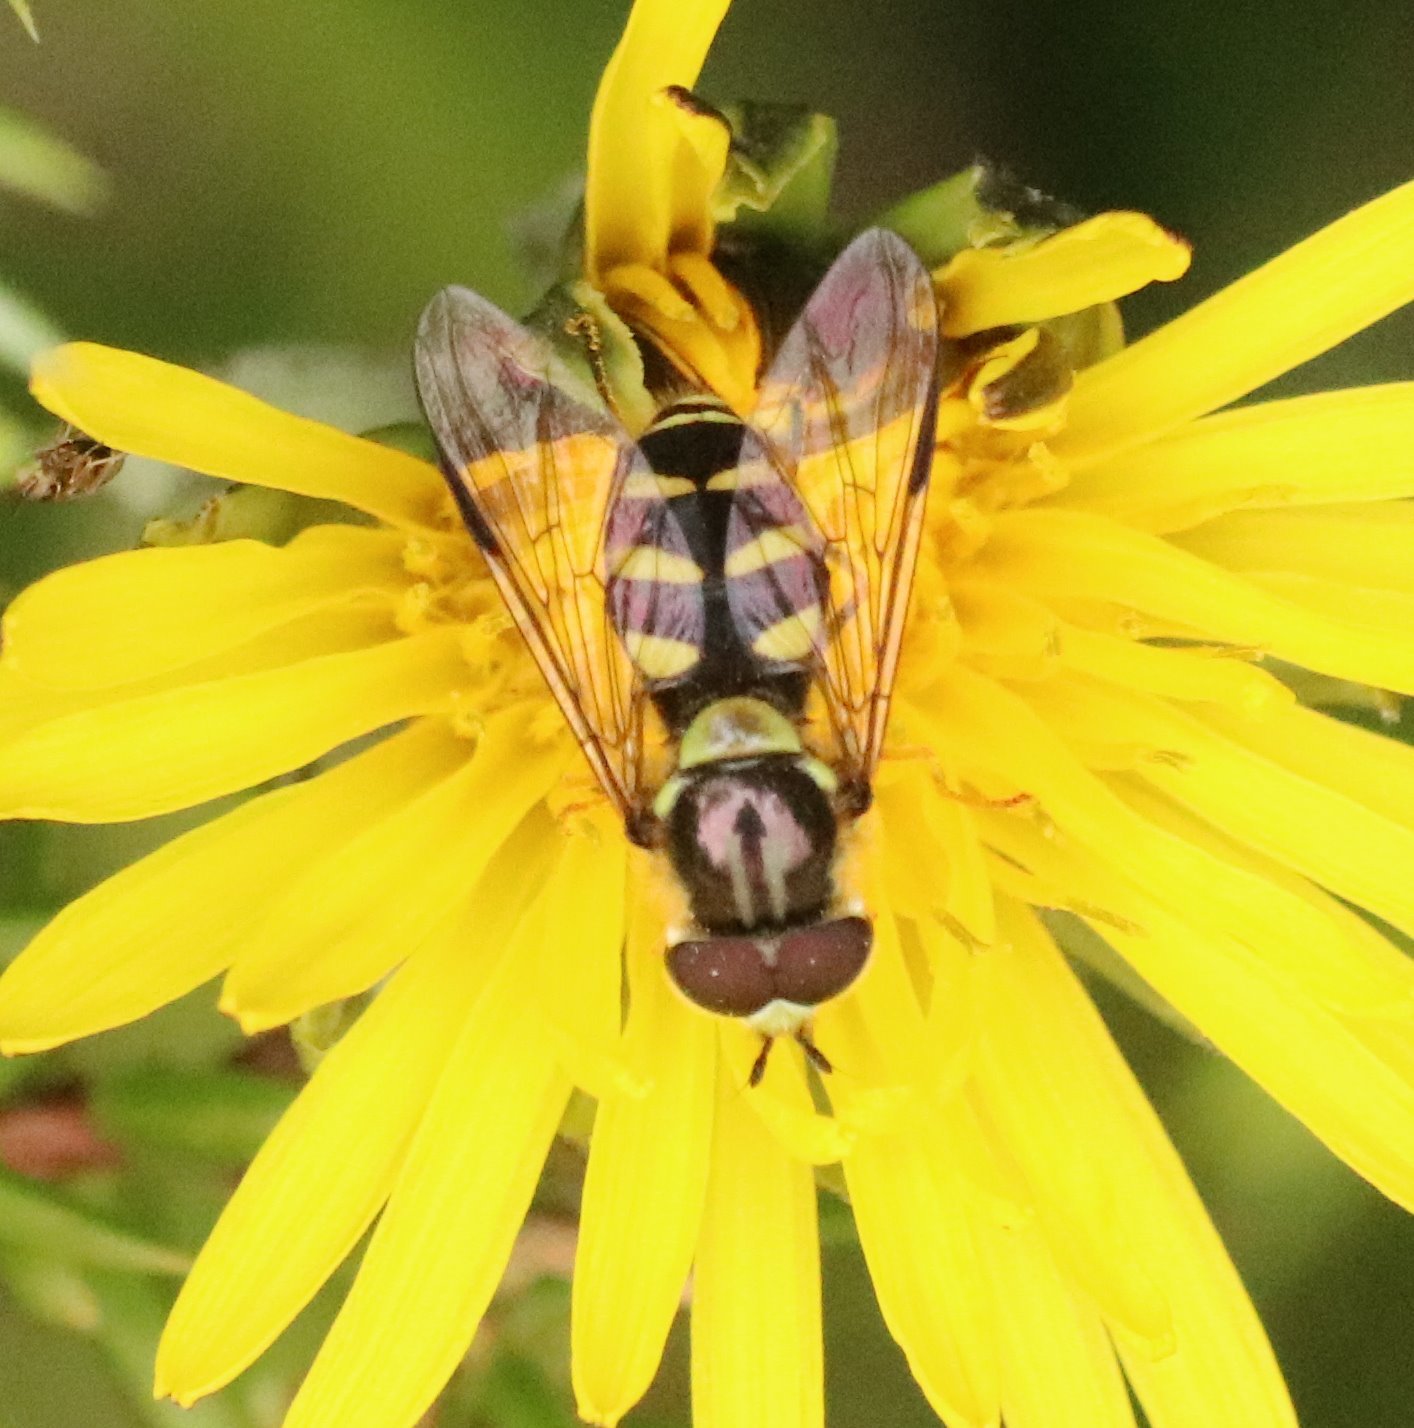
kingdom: Animalia
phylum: Arthropoda
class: Insecta
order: Diptera
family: Syrphidae
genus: Dasysyrphus
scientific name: Dasysyrphus albostriatus
